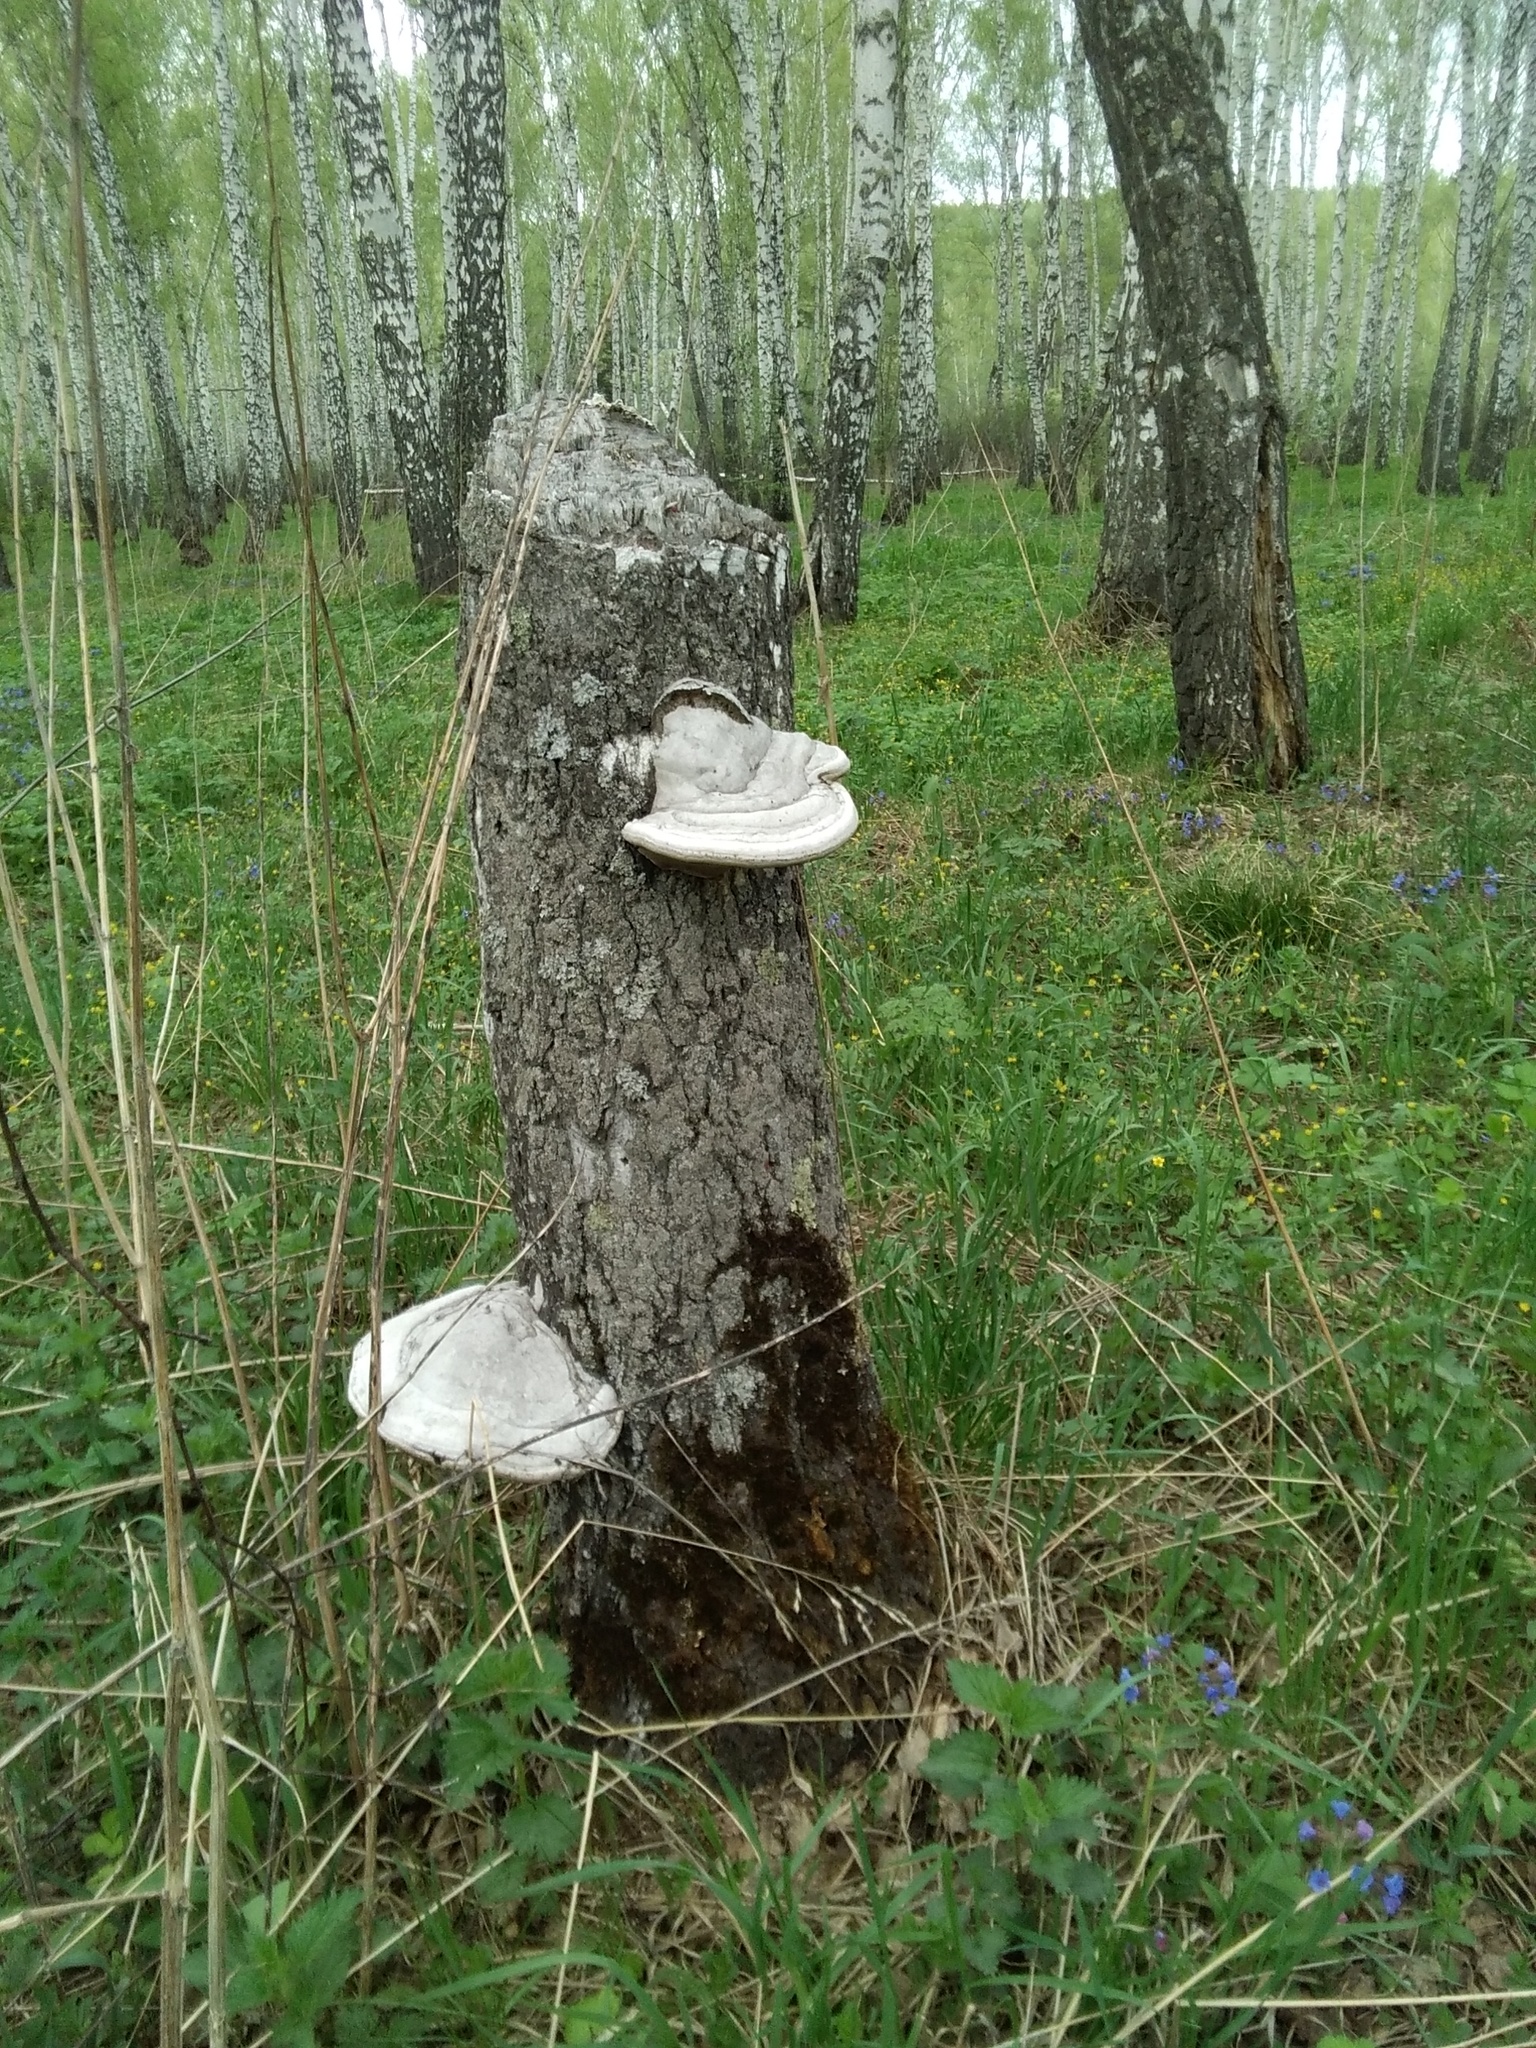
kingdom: Fungi
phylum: Basidiomycota
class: Agaricomycetes
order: Polyporales
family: Polyporaceae
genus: Fomes
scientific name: Fomes fomentarius
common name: Hoof fungus
